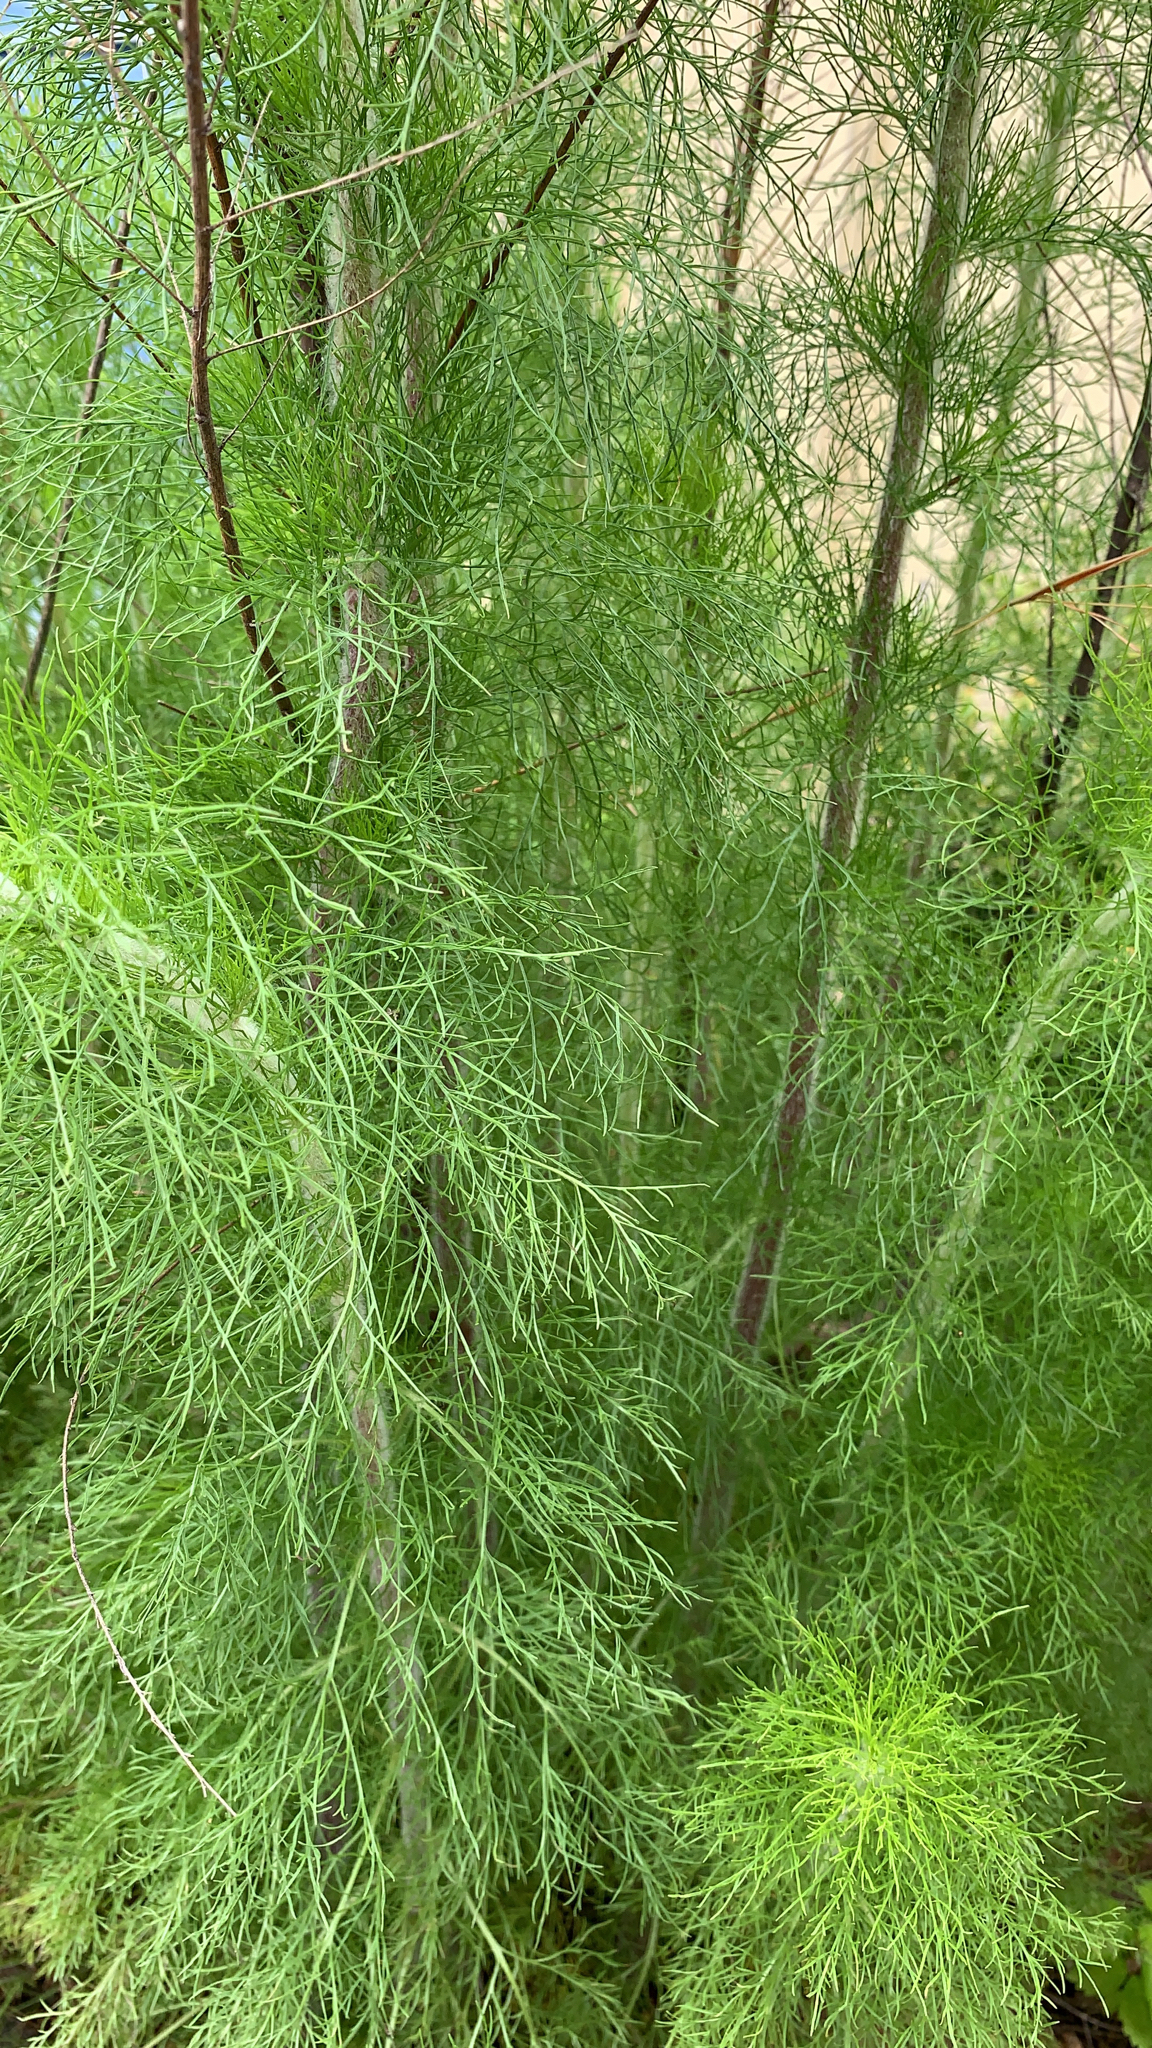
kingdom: Plantae
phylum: Tracheophyta
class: Magnoliopsida
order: Asterales
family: Asteraceae
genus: Eupatorium
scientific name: Eupatorium capillifolium
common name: Dog-fennel
